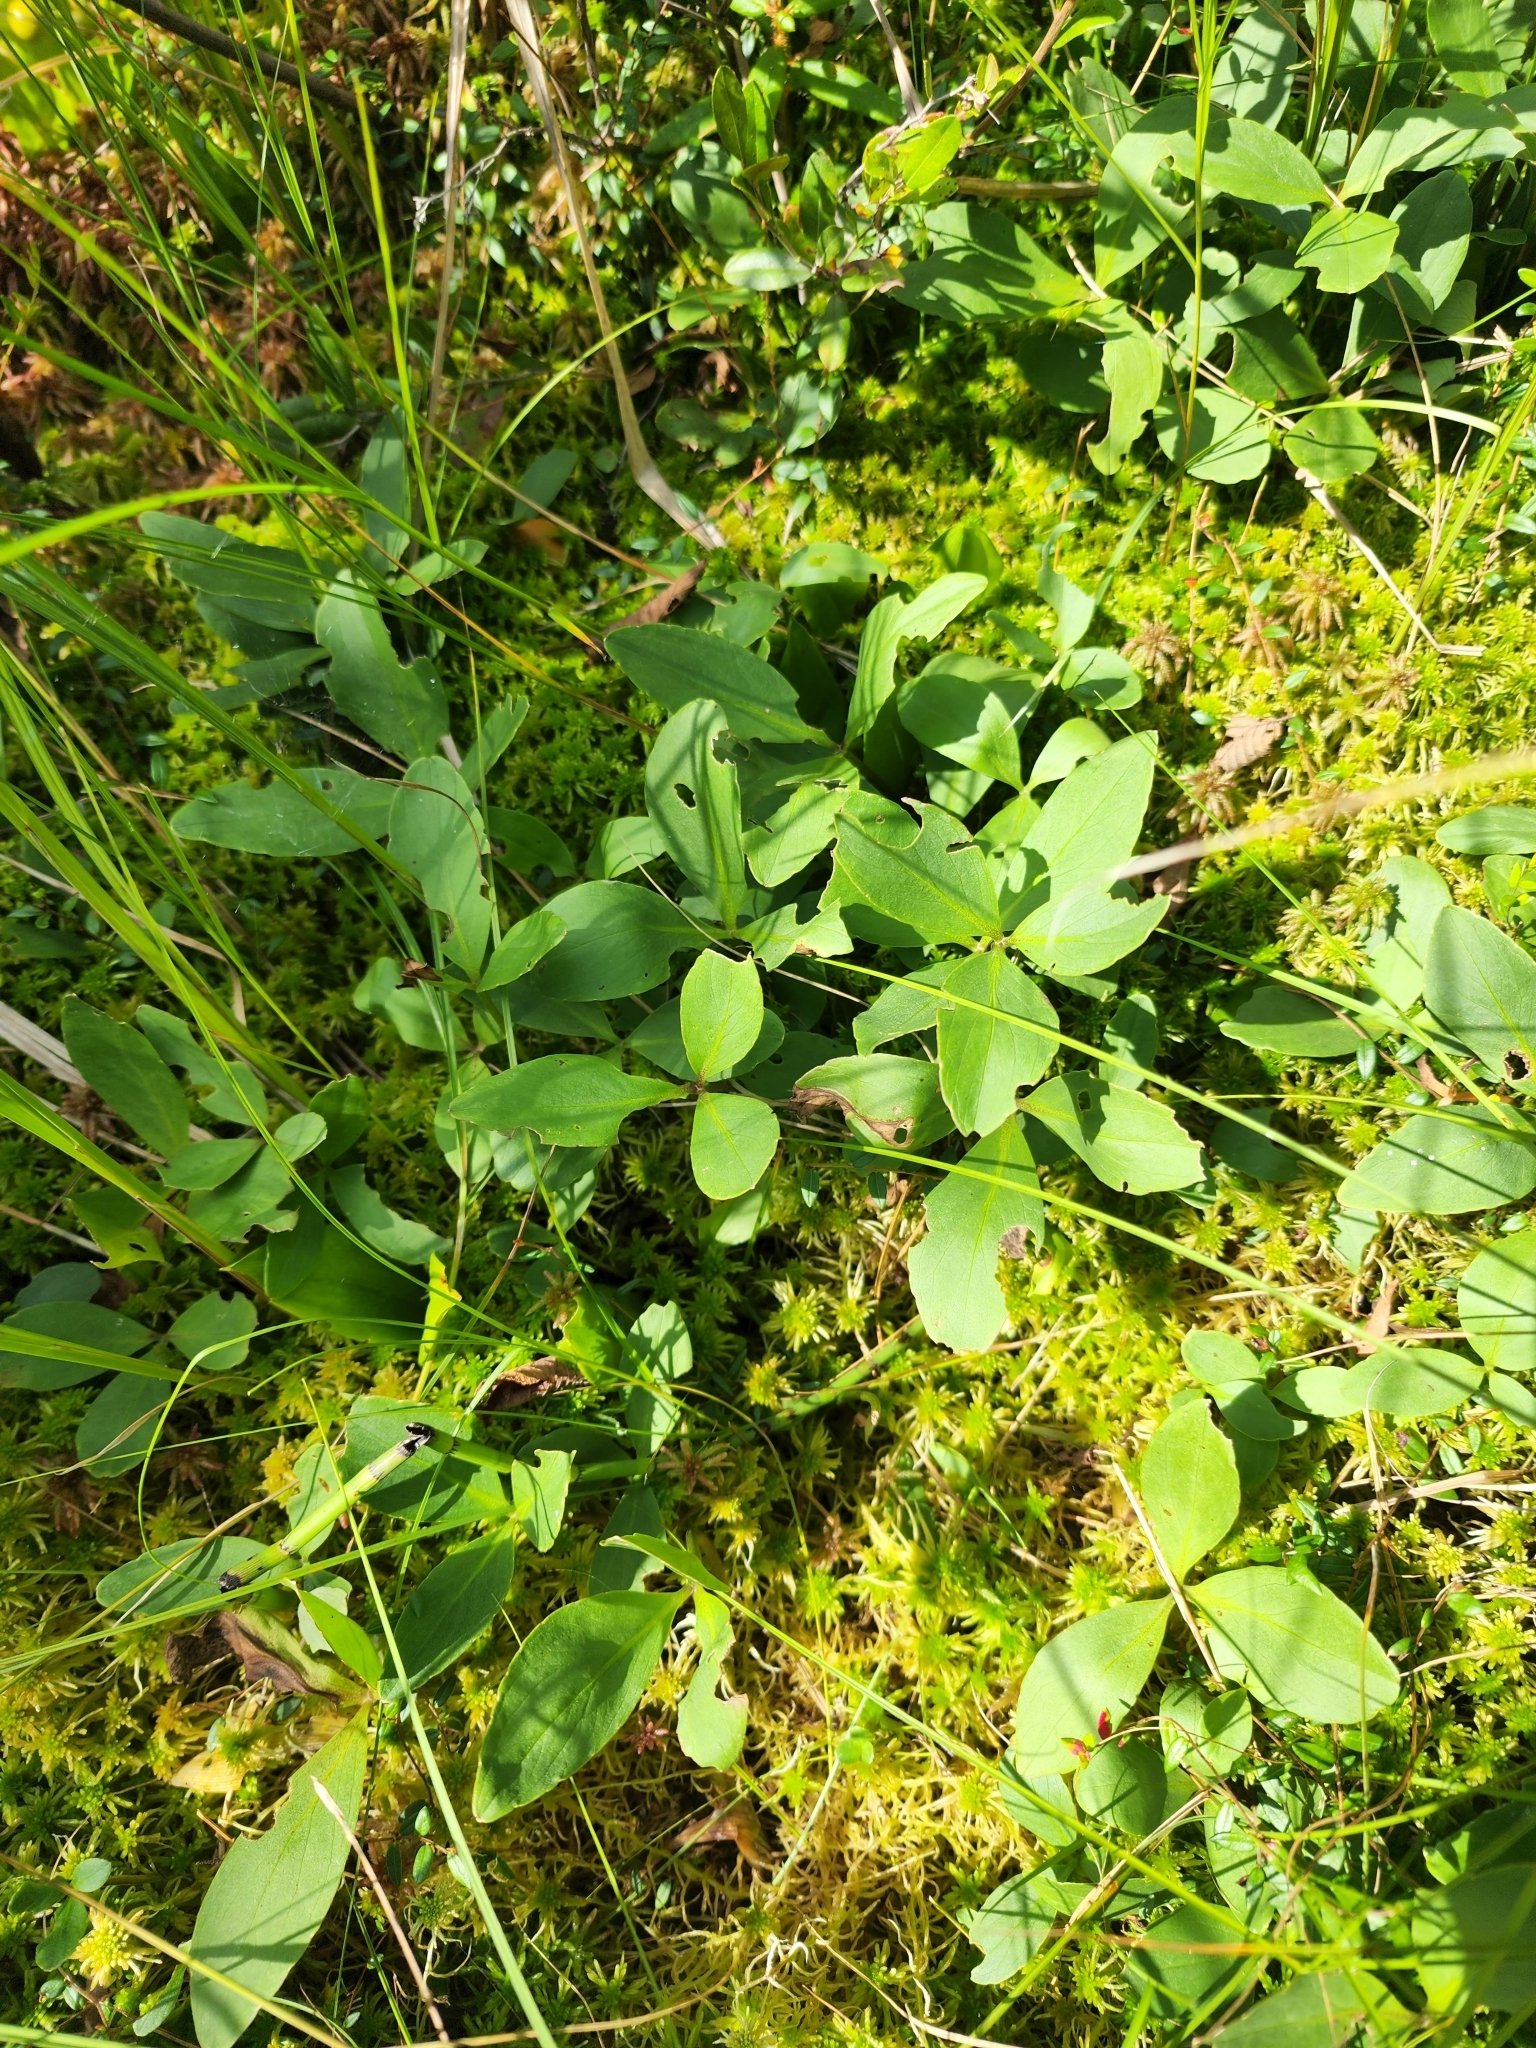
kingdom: Plantae
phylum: Tracheophyta
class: Magnoliopsida
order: Asterales
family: Menyanthaceae
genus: Menyanthes
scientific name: Menyanthes trifoliata
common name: Bogbean
